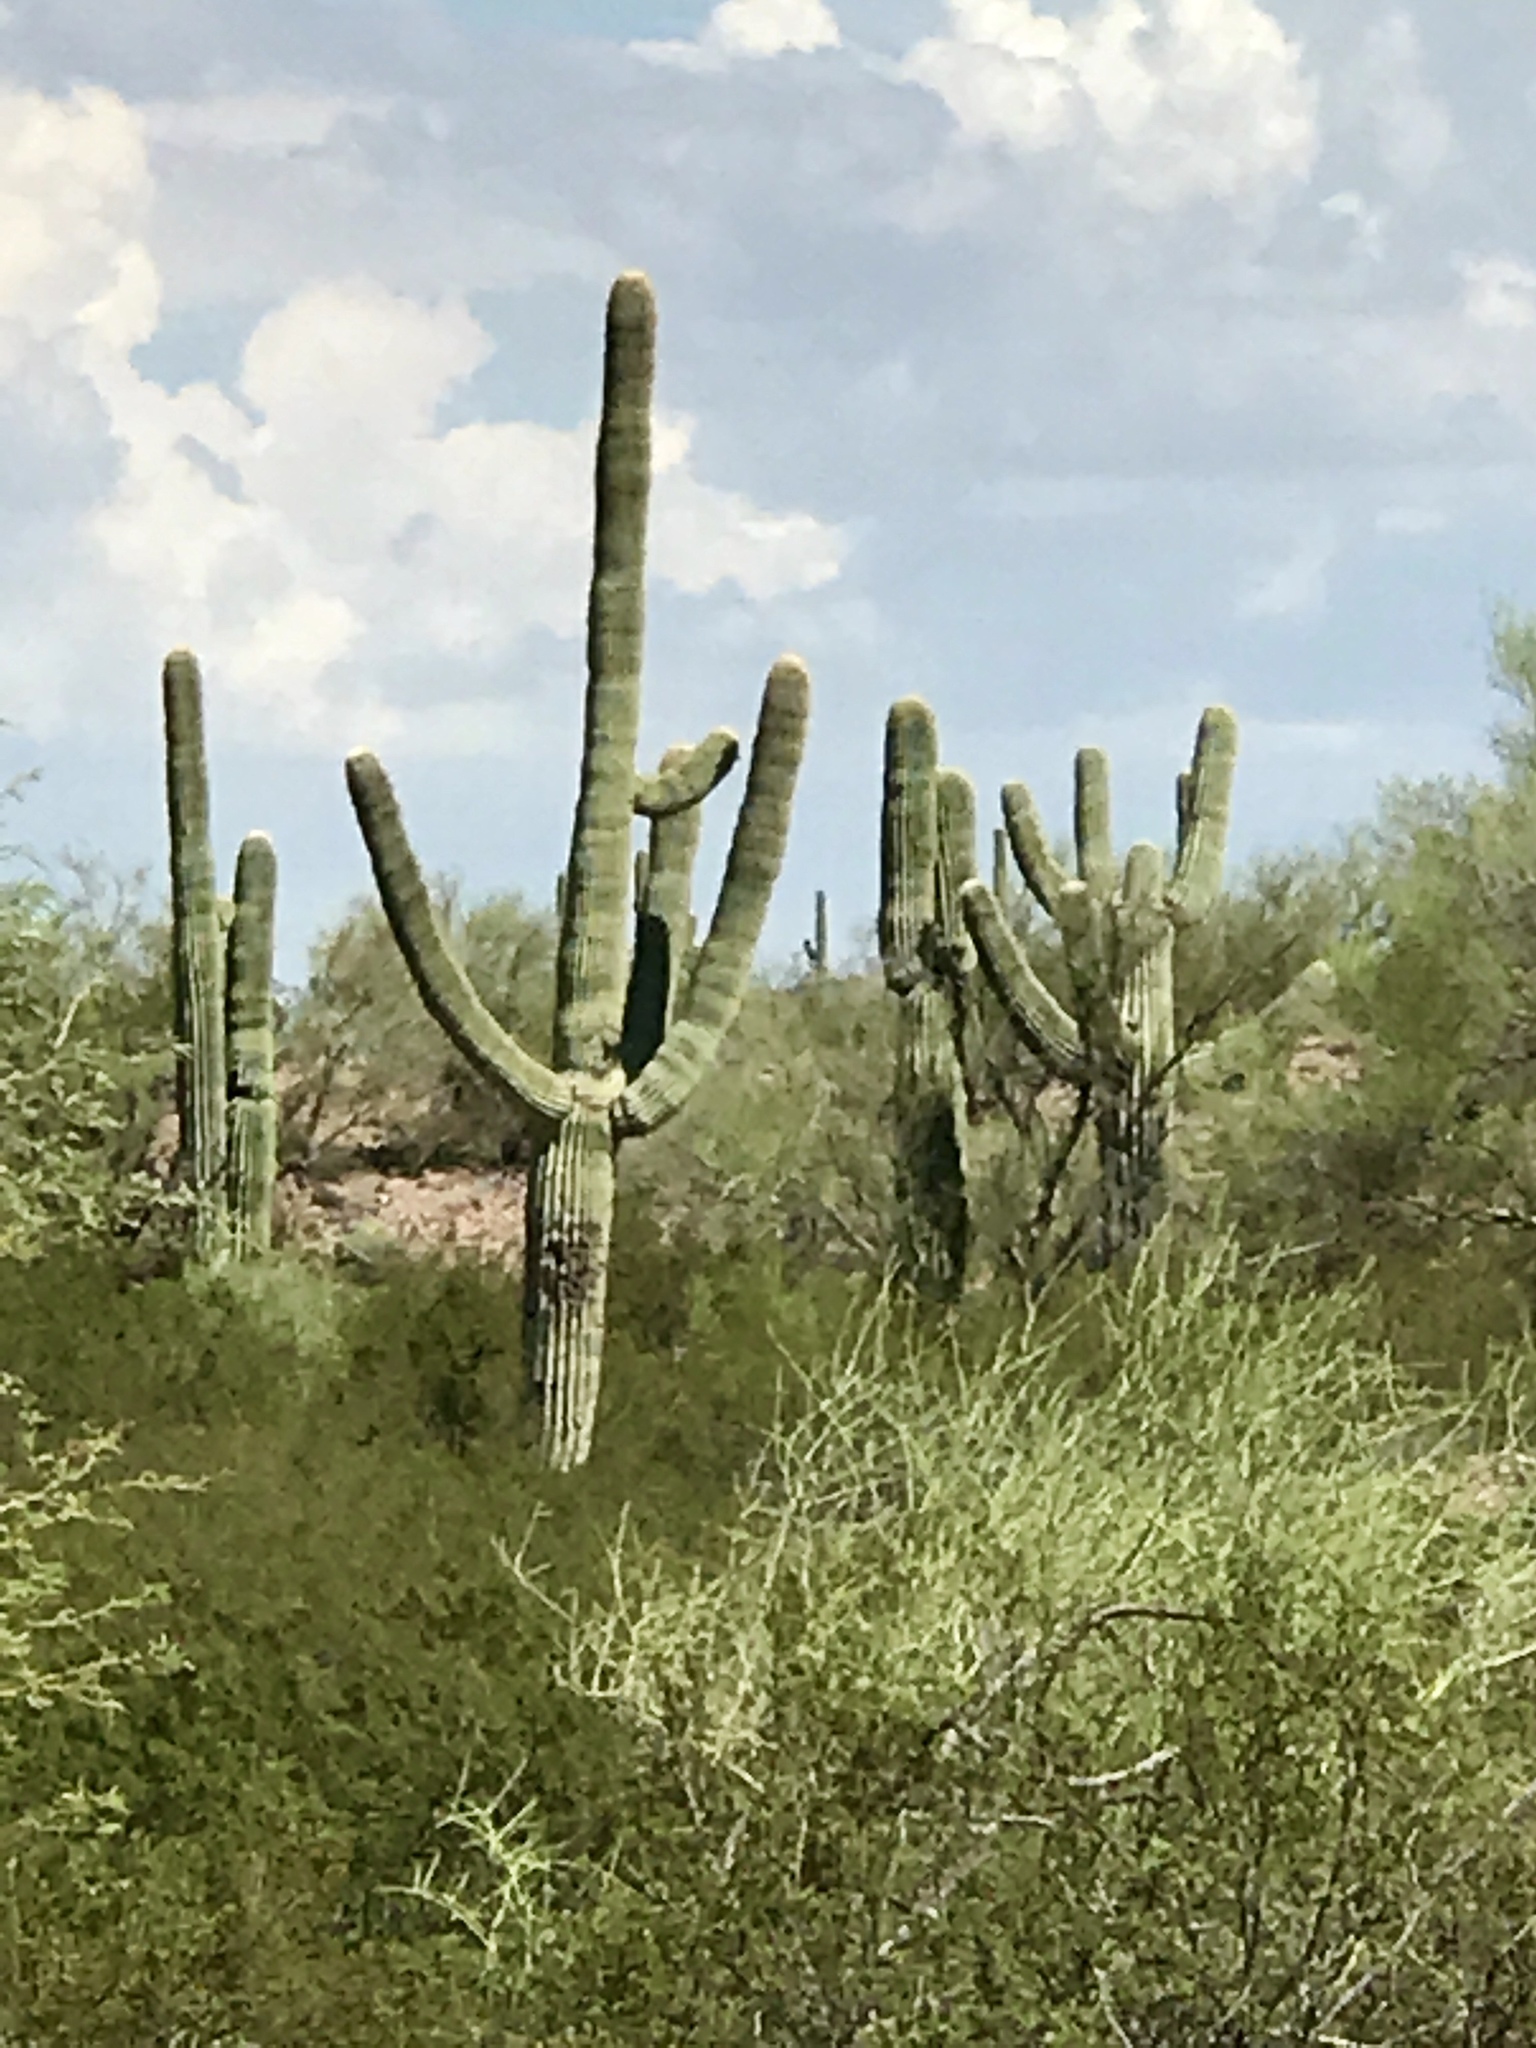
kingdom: Plantae
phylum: Tracheophyta
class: Magnoliopsida
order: Caryophyllales
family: Cactaceae
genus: Carnegiea
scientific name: Carnegiea gigantea
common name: Saguaro
